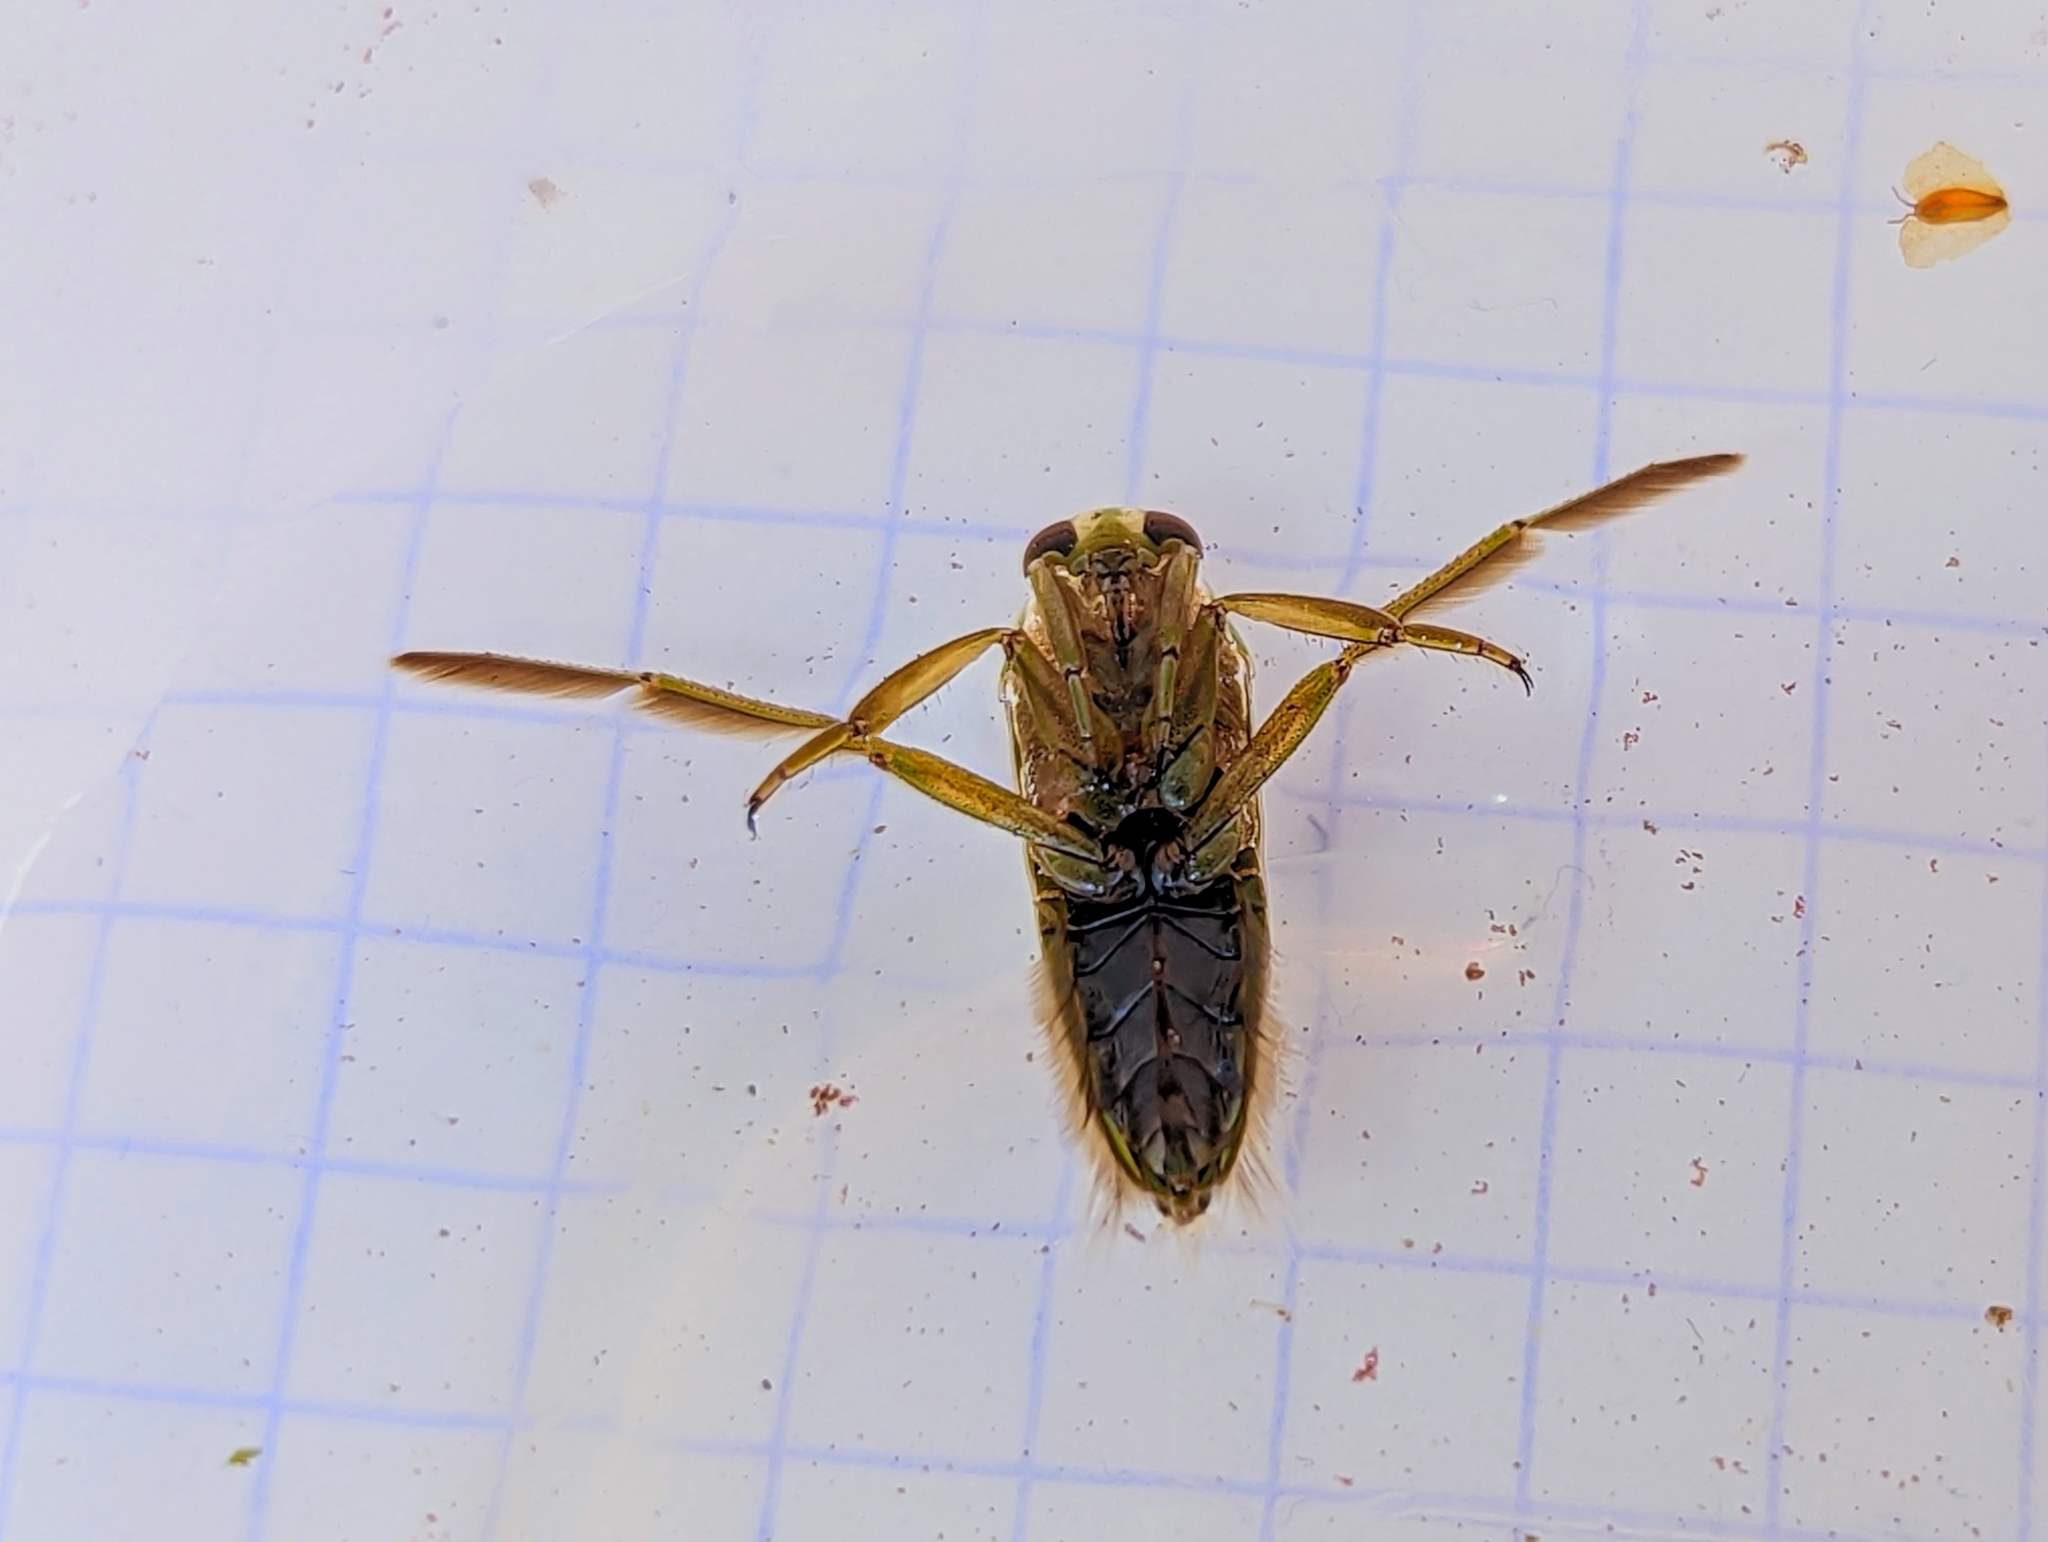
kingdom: Animalia
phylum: Arthropoda
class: Insecta
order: Hemiptera
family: Notonectidae
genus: Notonecta
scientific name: Notonecta obliqua
